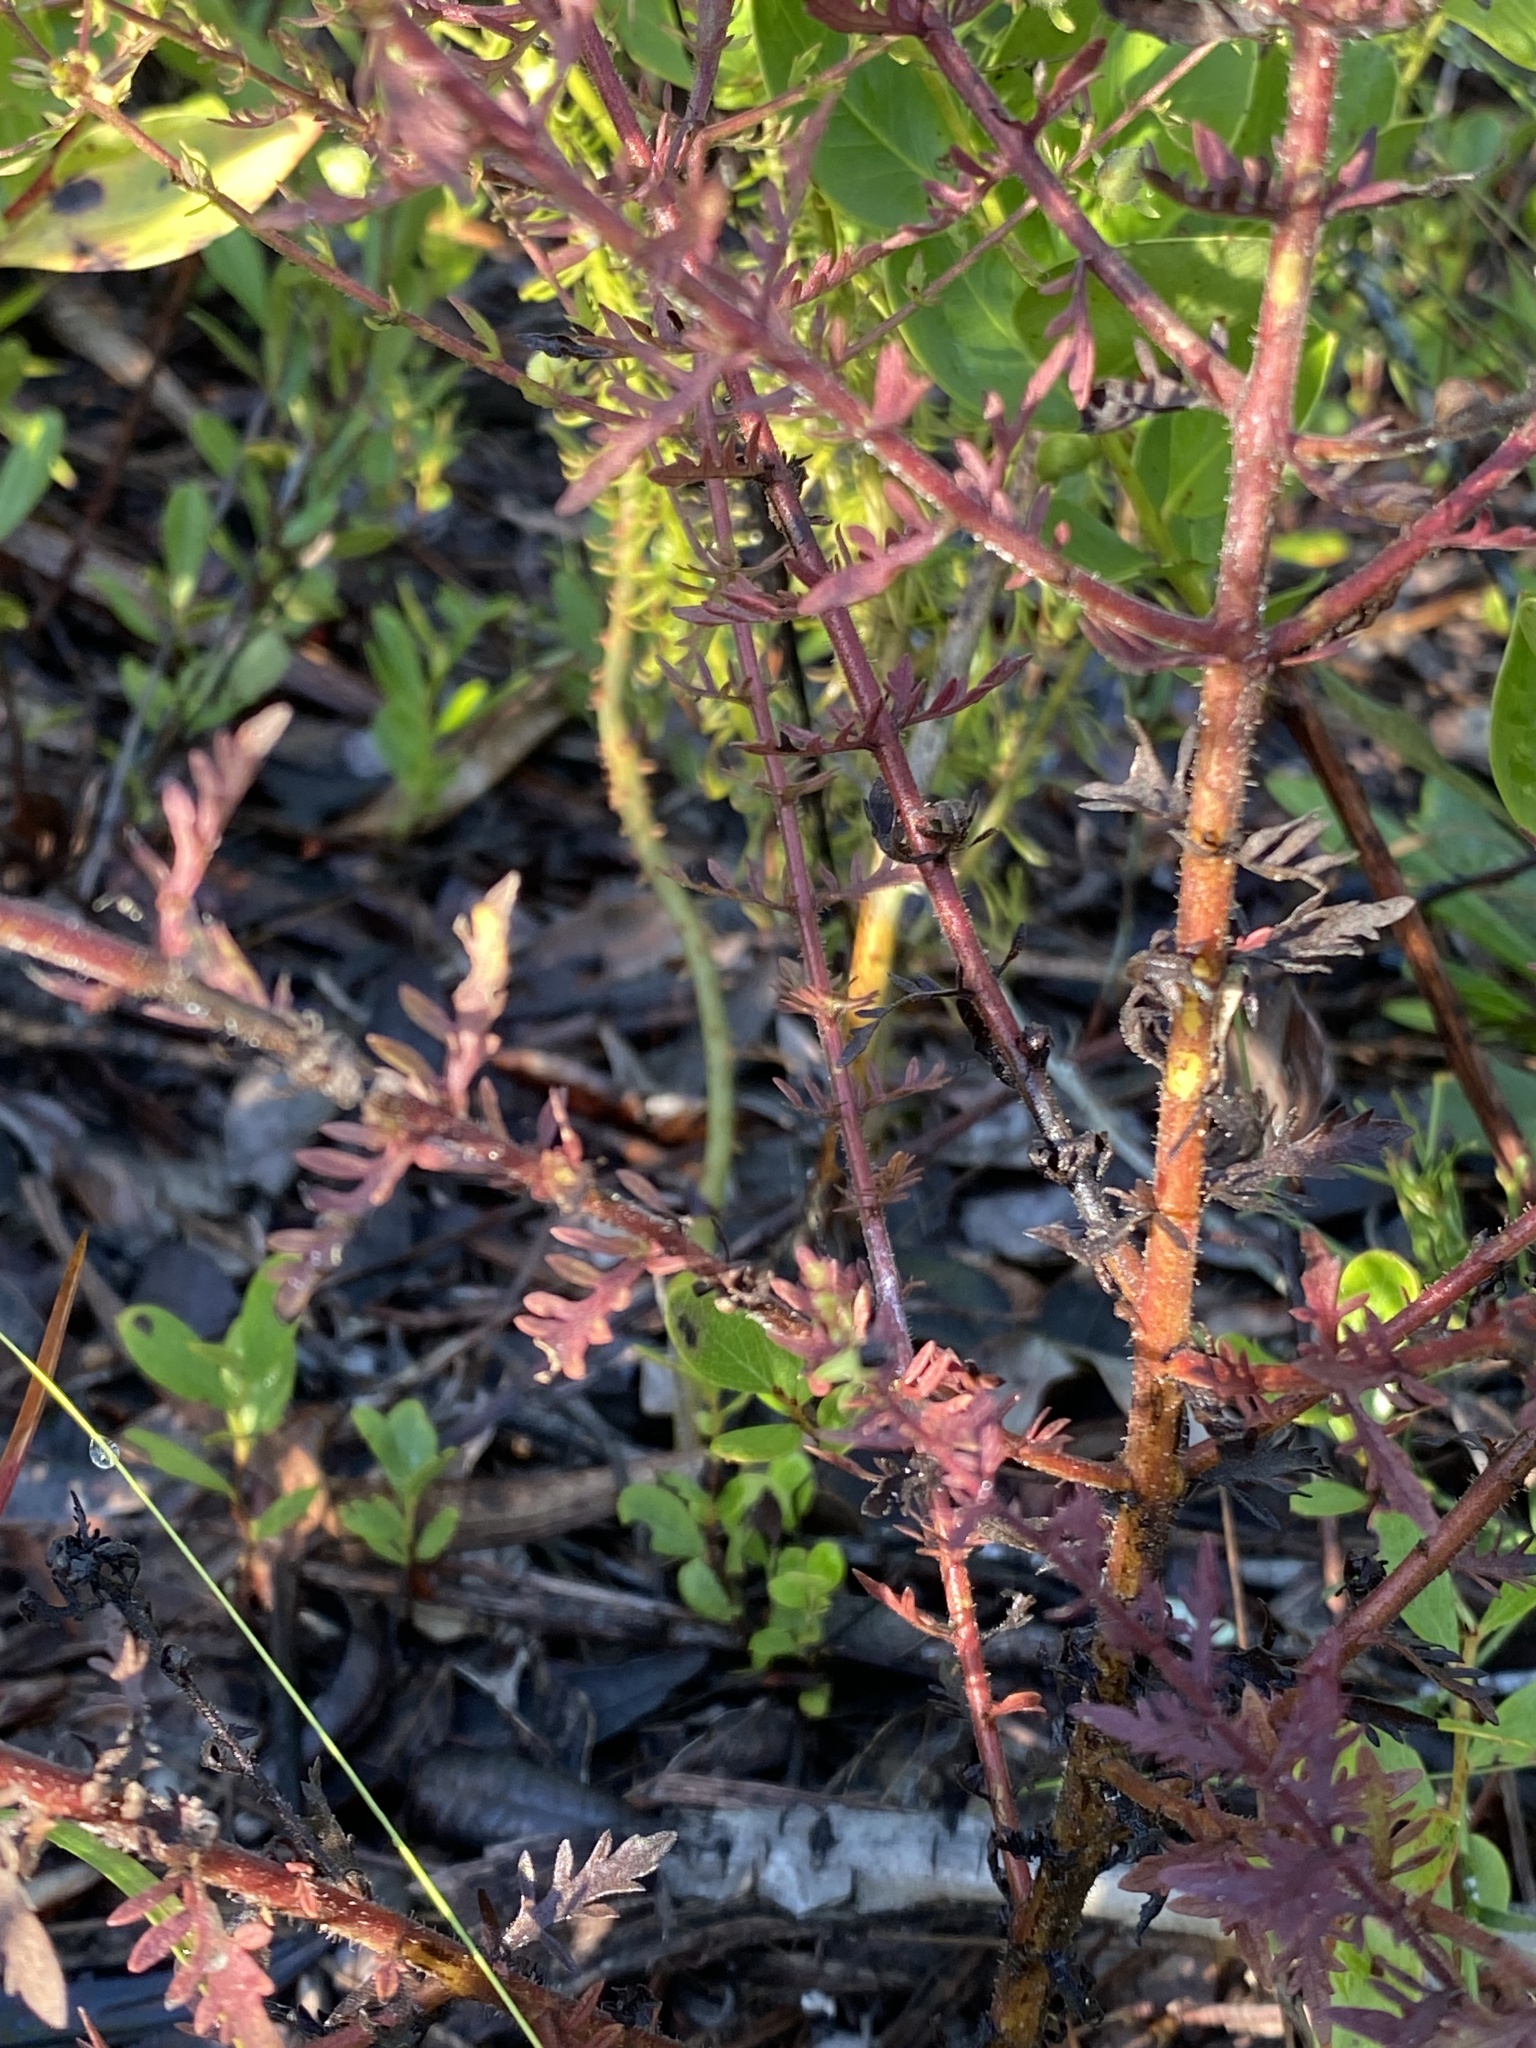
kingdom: Plantae
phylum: Tracheophyta
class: Magnoliopsida
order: Lamiales
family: Orobanchaceae
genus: Seymeria
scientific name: Seymeria pectinata
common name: Piedmont black-senna
